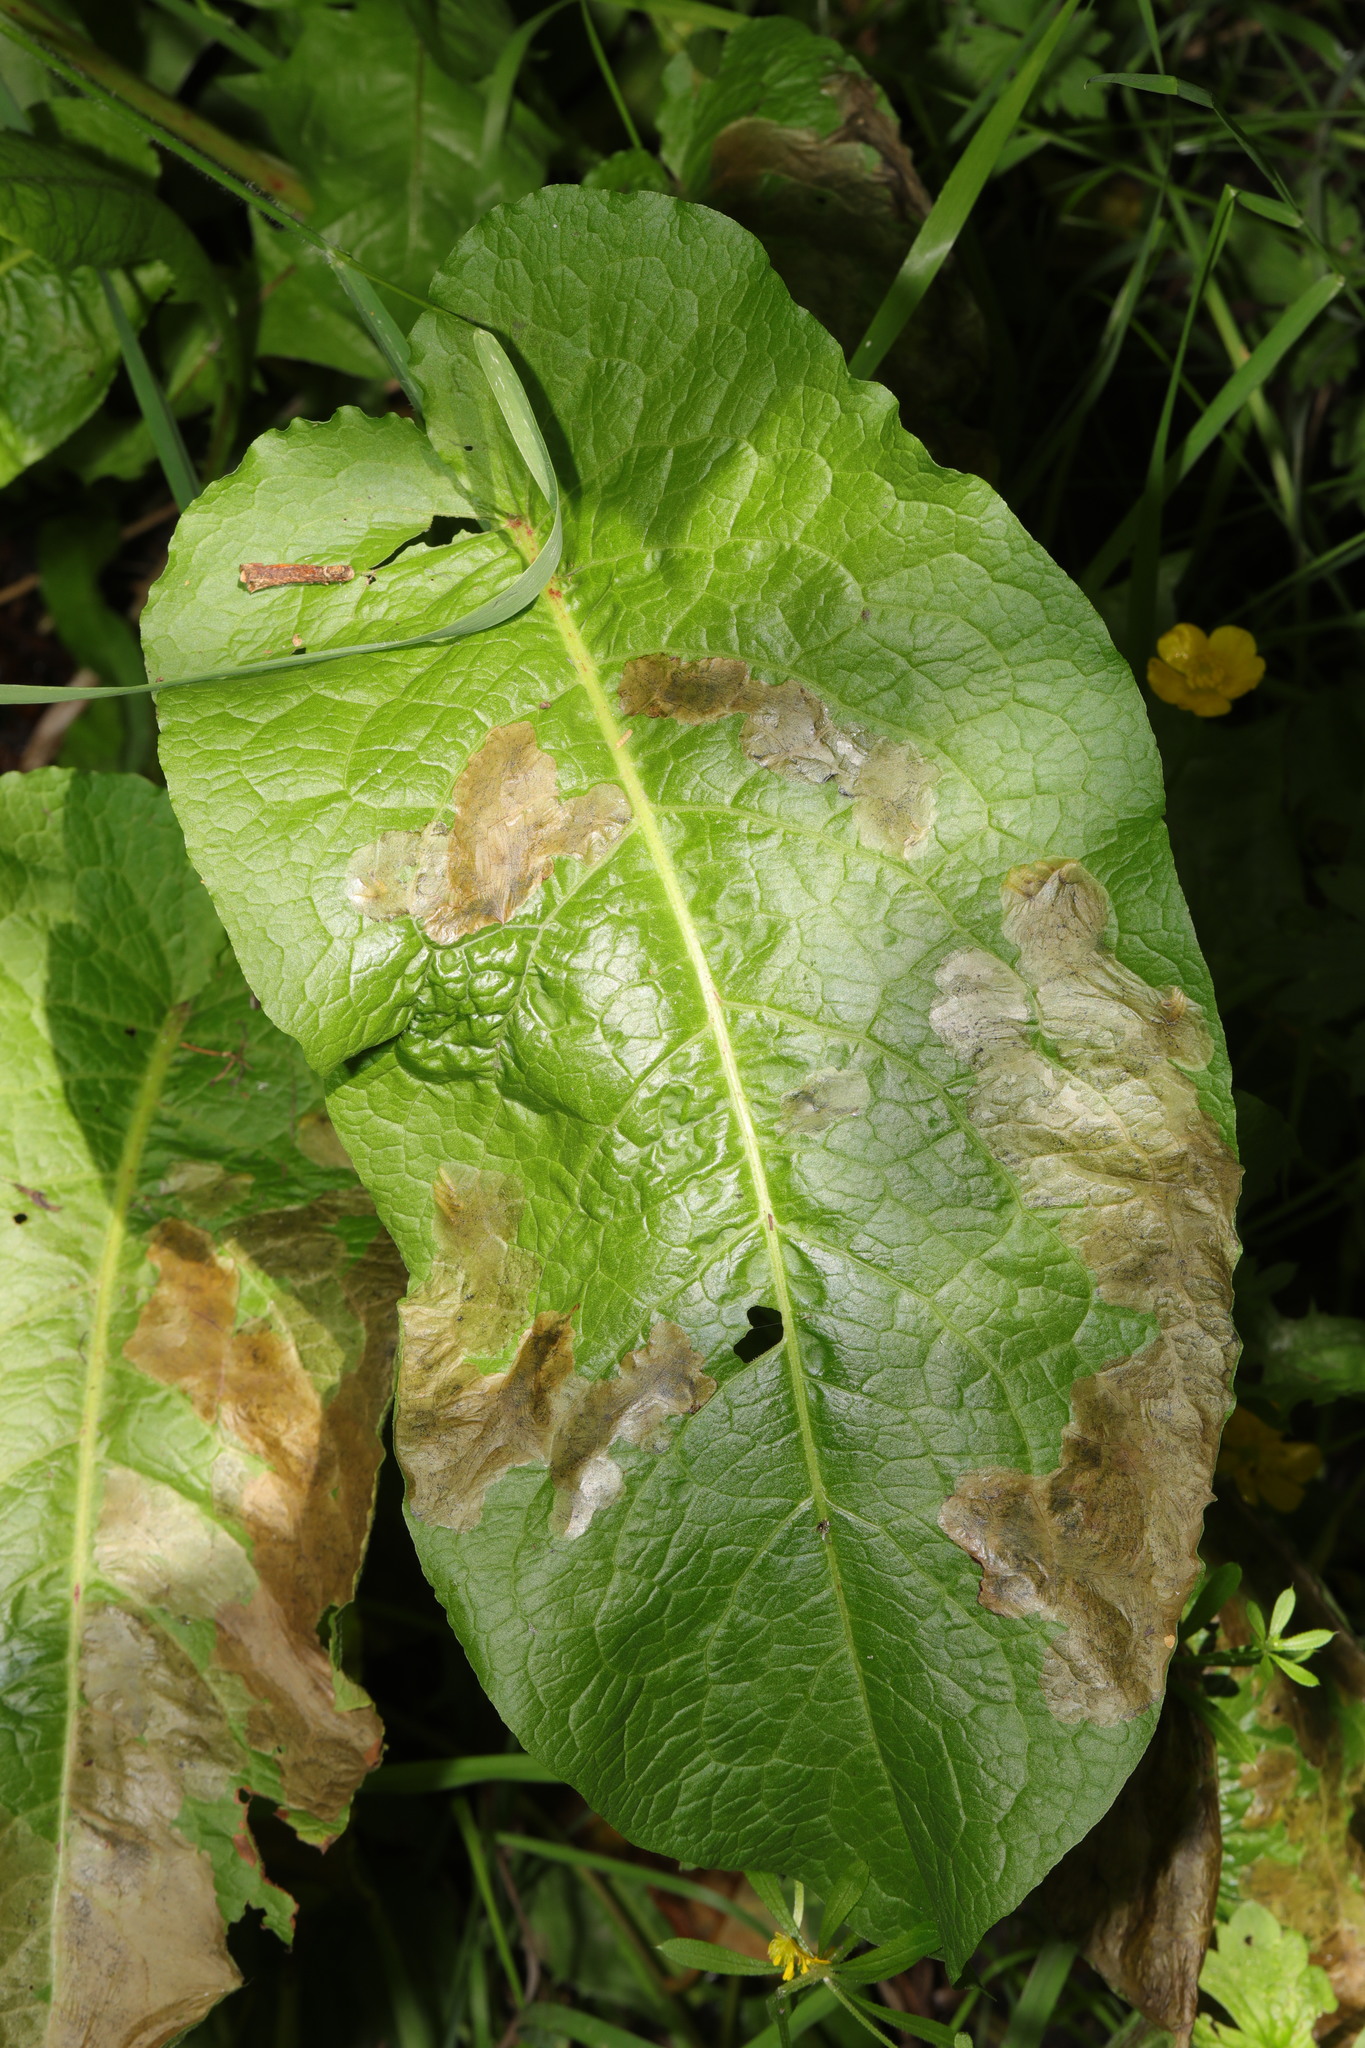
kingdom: Plantae
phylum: Tracheophyta
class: Magnoliopsida
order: Caryophyllales
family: Polygonaceae
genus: Rumex
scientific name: Rumex obtusifolius
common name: Bitter dock
